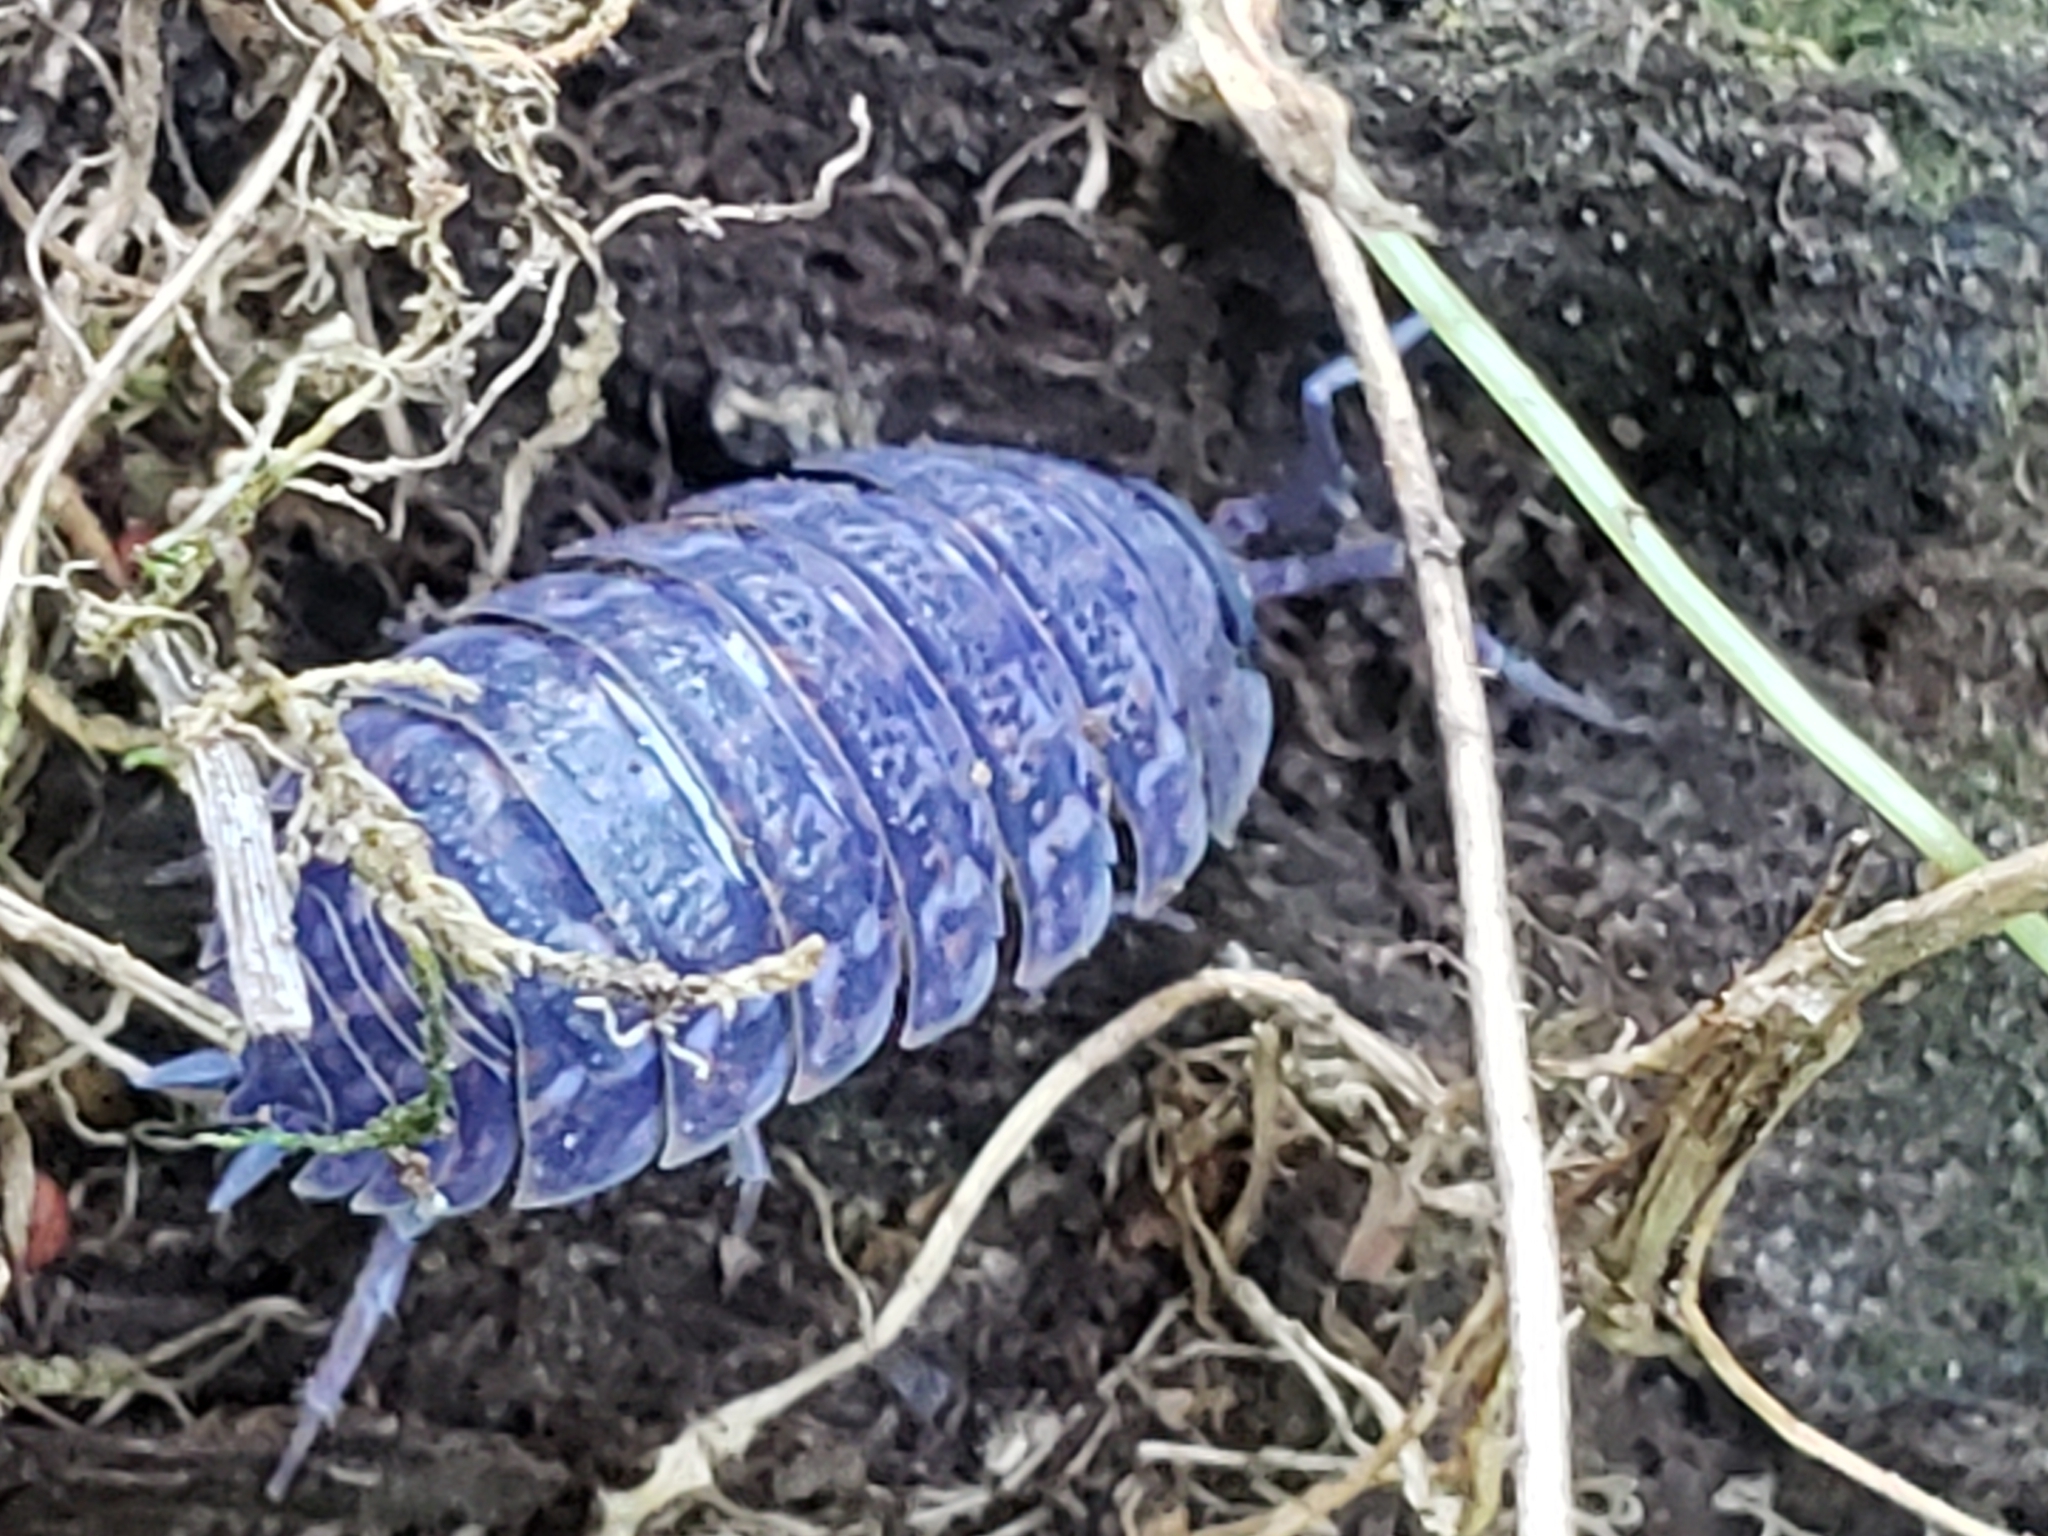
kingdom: Viruses
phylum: Nucleocytoviricota
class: Megaviricetes
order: Pimascovirales
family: Iridoviridae
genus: Iridovirus
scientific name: Iridovirus Invertebrate iridescent virus 31
